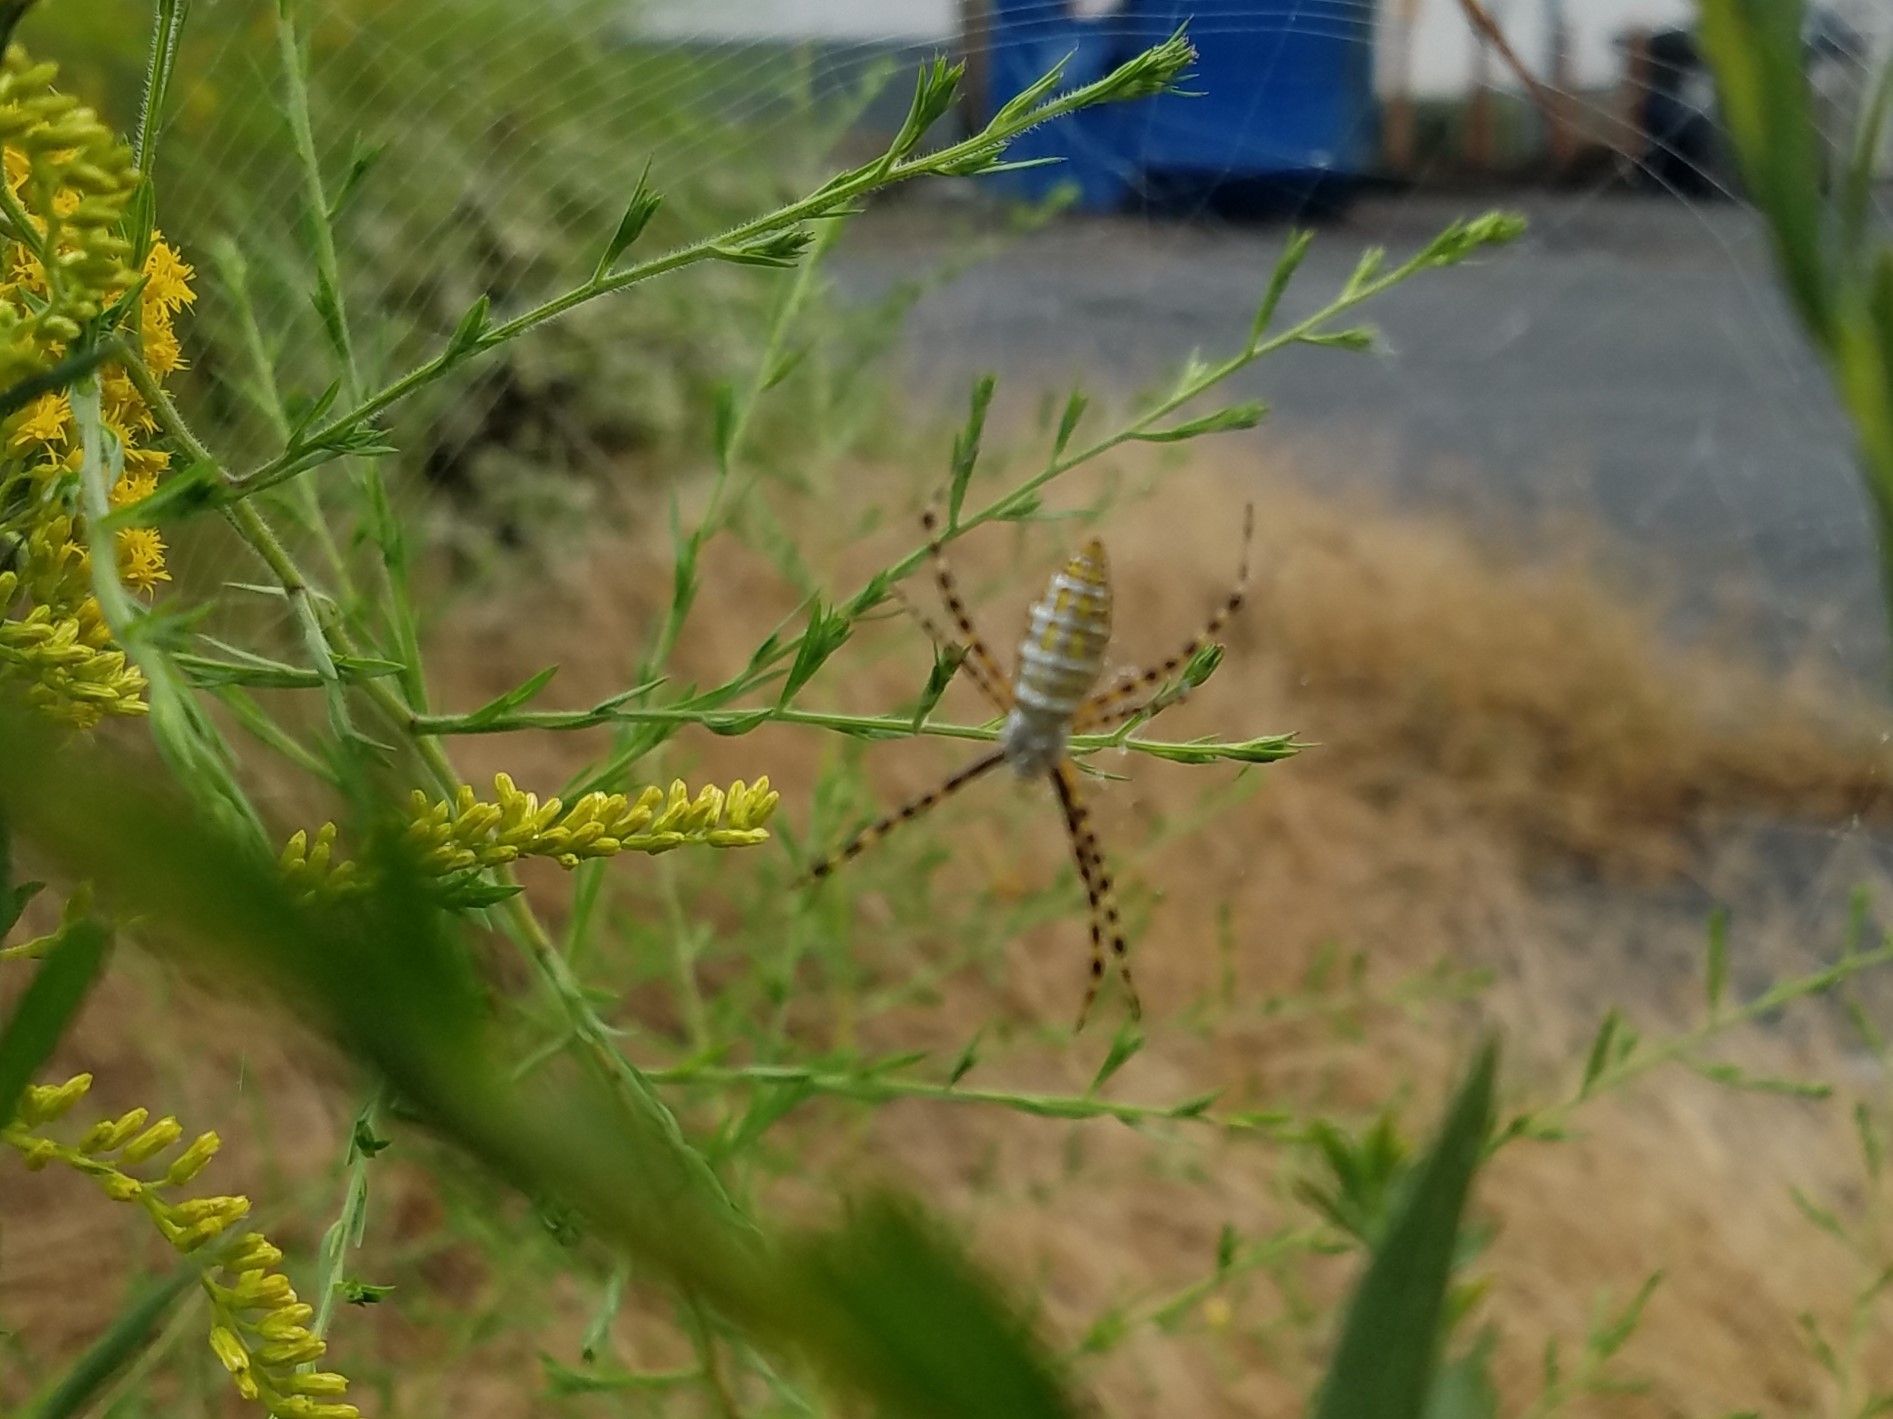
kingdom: Animalia
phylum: Arthropoda
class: Arachnida
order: Araneae
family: Araneidae
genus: Argiope
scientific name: Argiope trifasciata
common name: Banded garden spider
